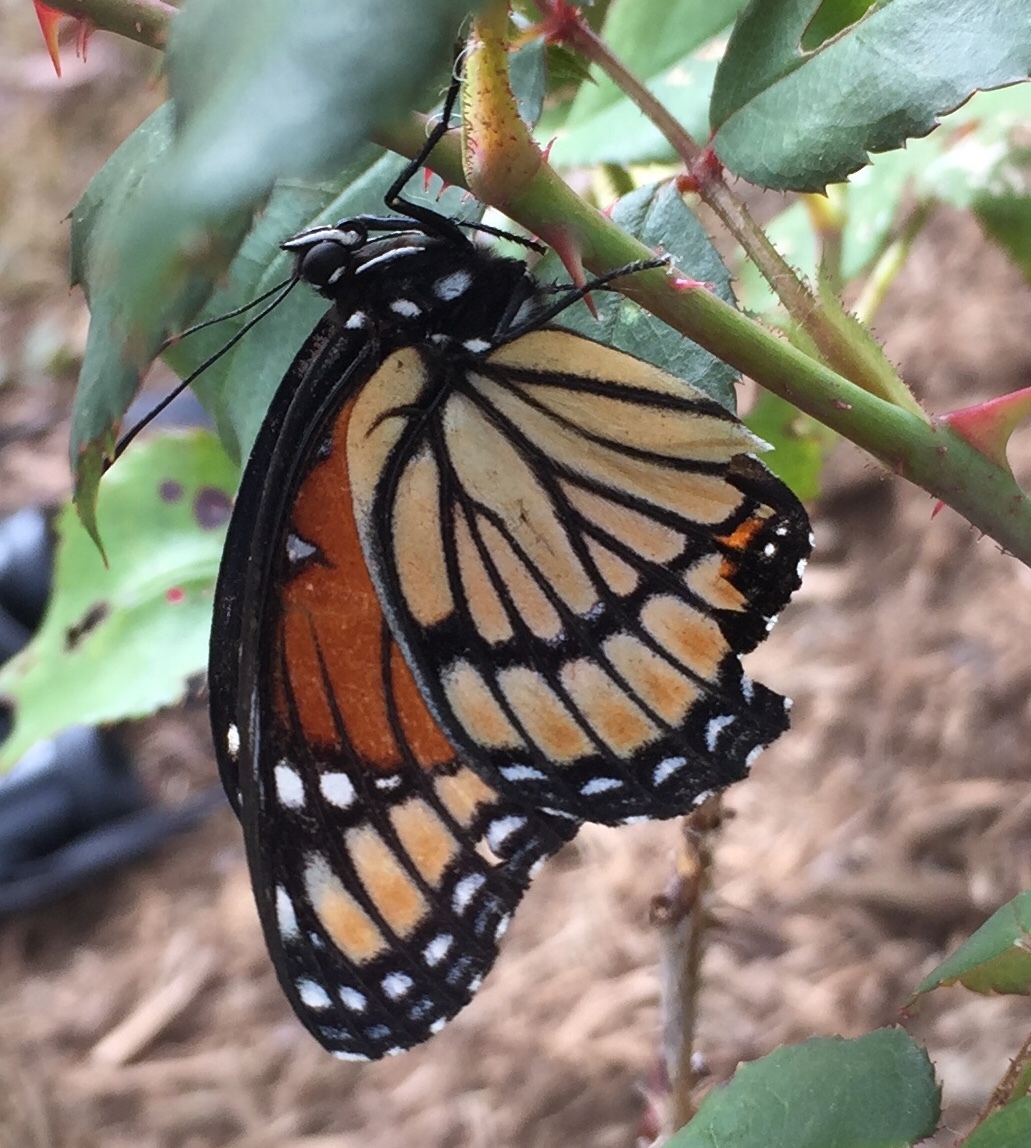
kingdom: Animalia
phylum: Arthropoda
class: Insecta
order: Lepidoptera
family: Nymphalidae
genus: Limenitis
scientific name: Limenitis archippus
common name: Viceroy
